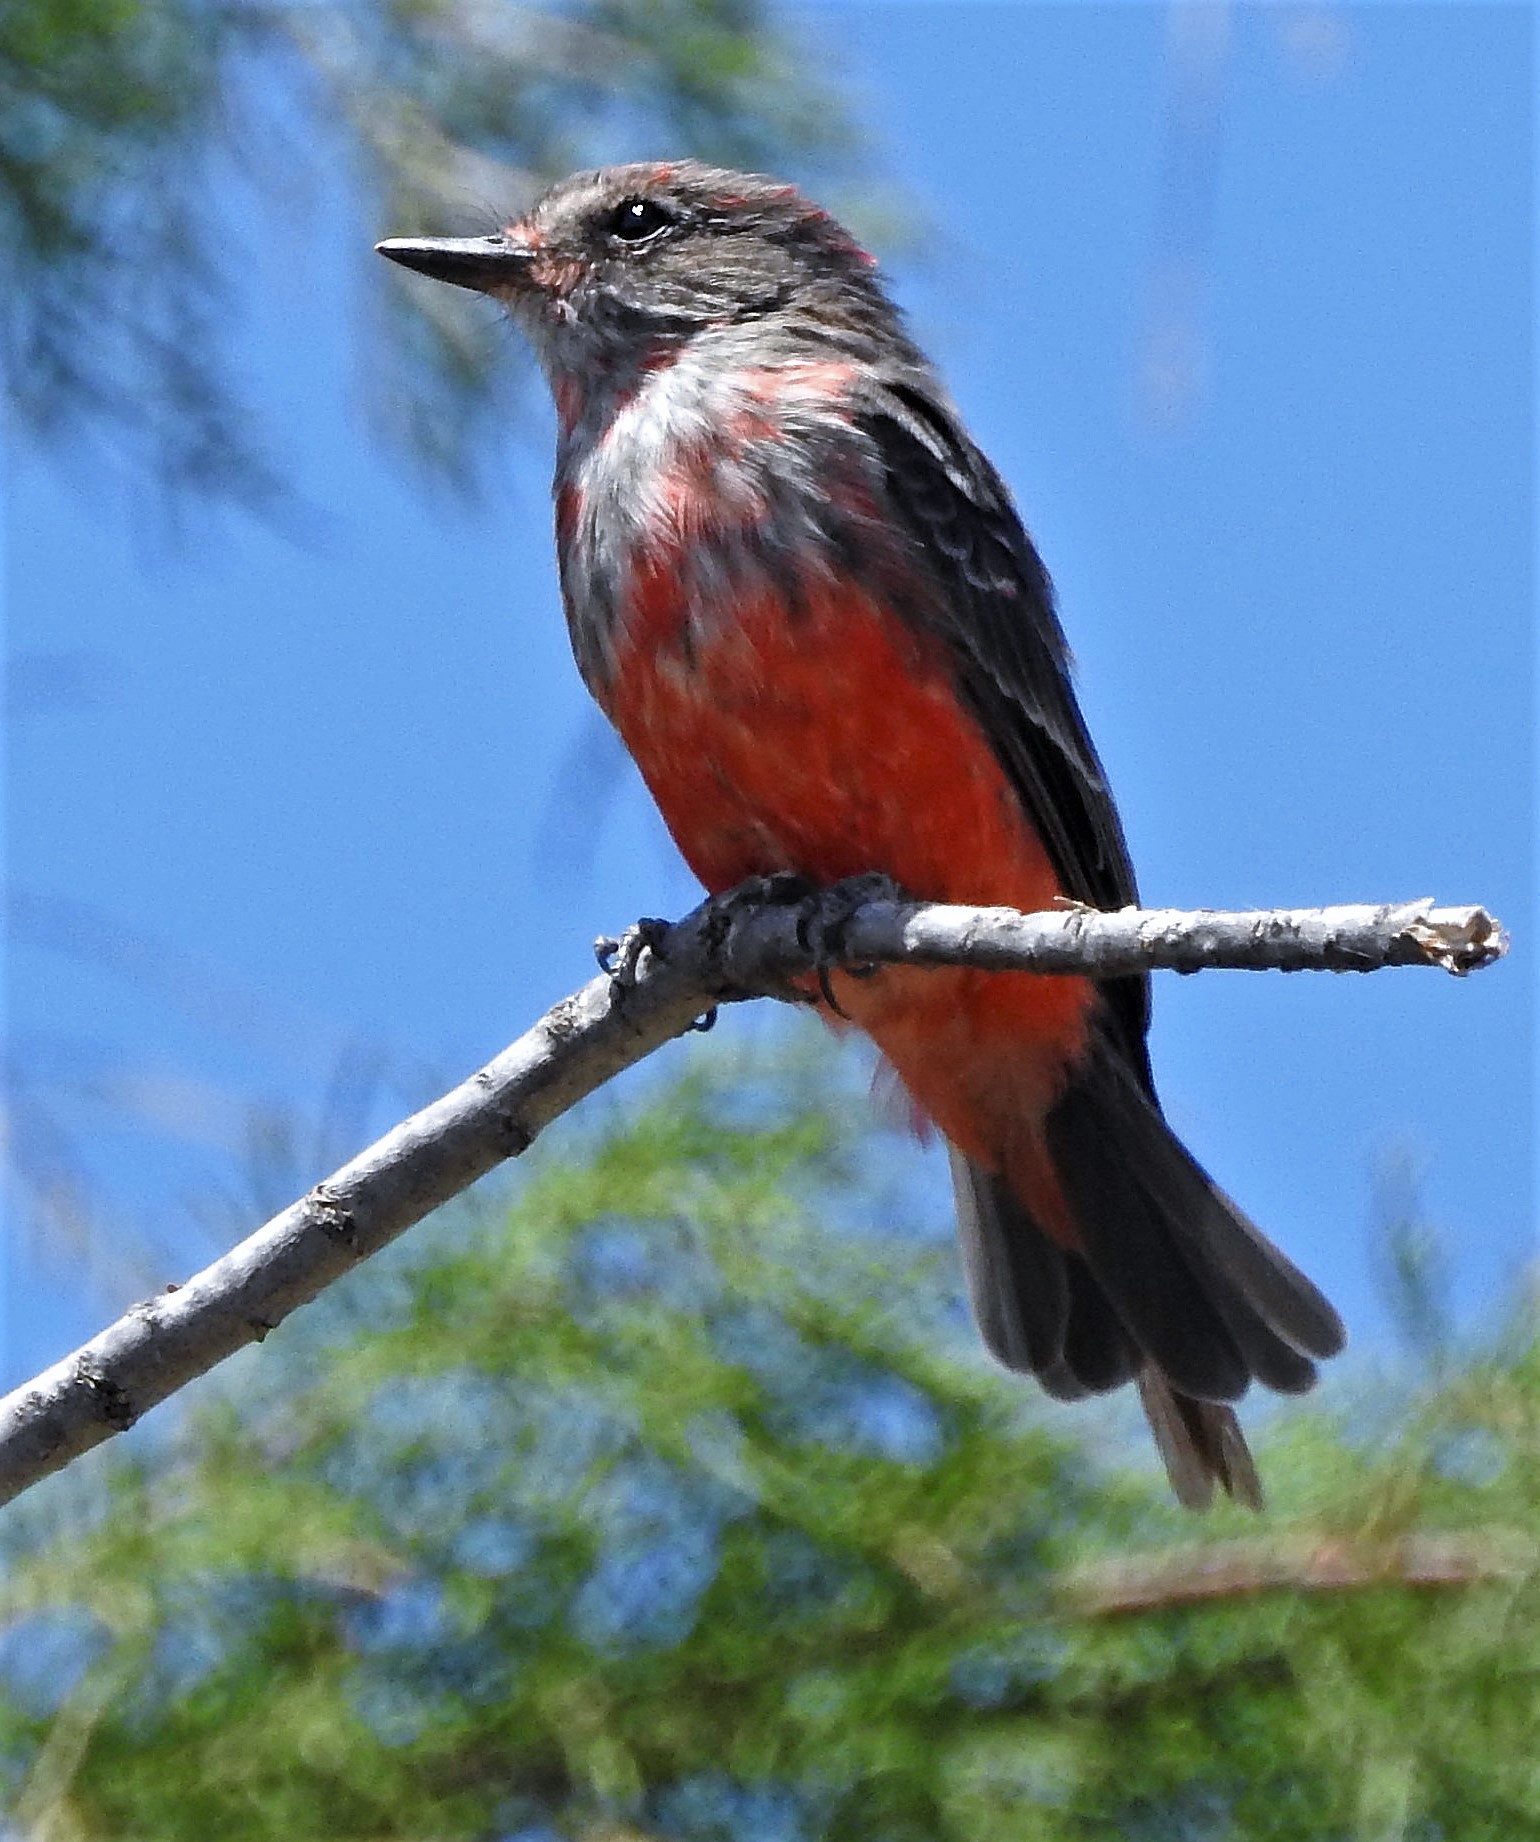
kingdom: Animalia
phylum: Chordata
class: Aves
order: Passeriformes
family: Tyrannidae
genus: Pyrocephalus
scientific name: Pyrocephalus rubinus
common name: Vermilion flycatcher
